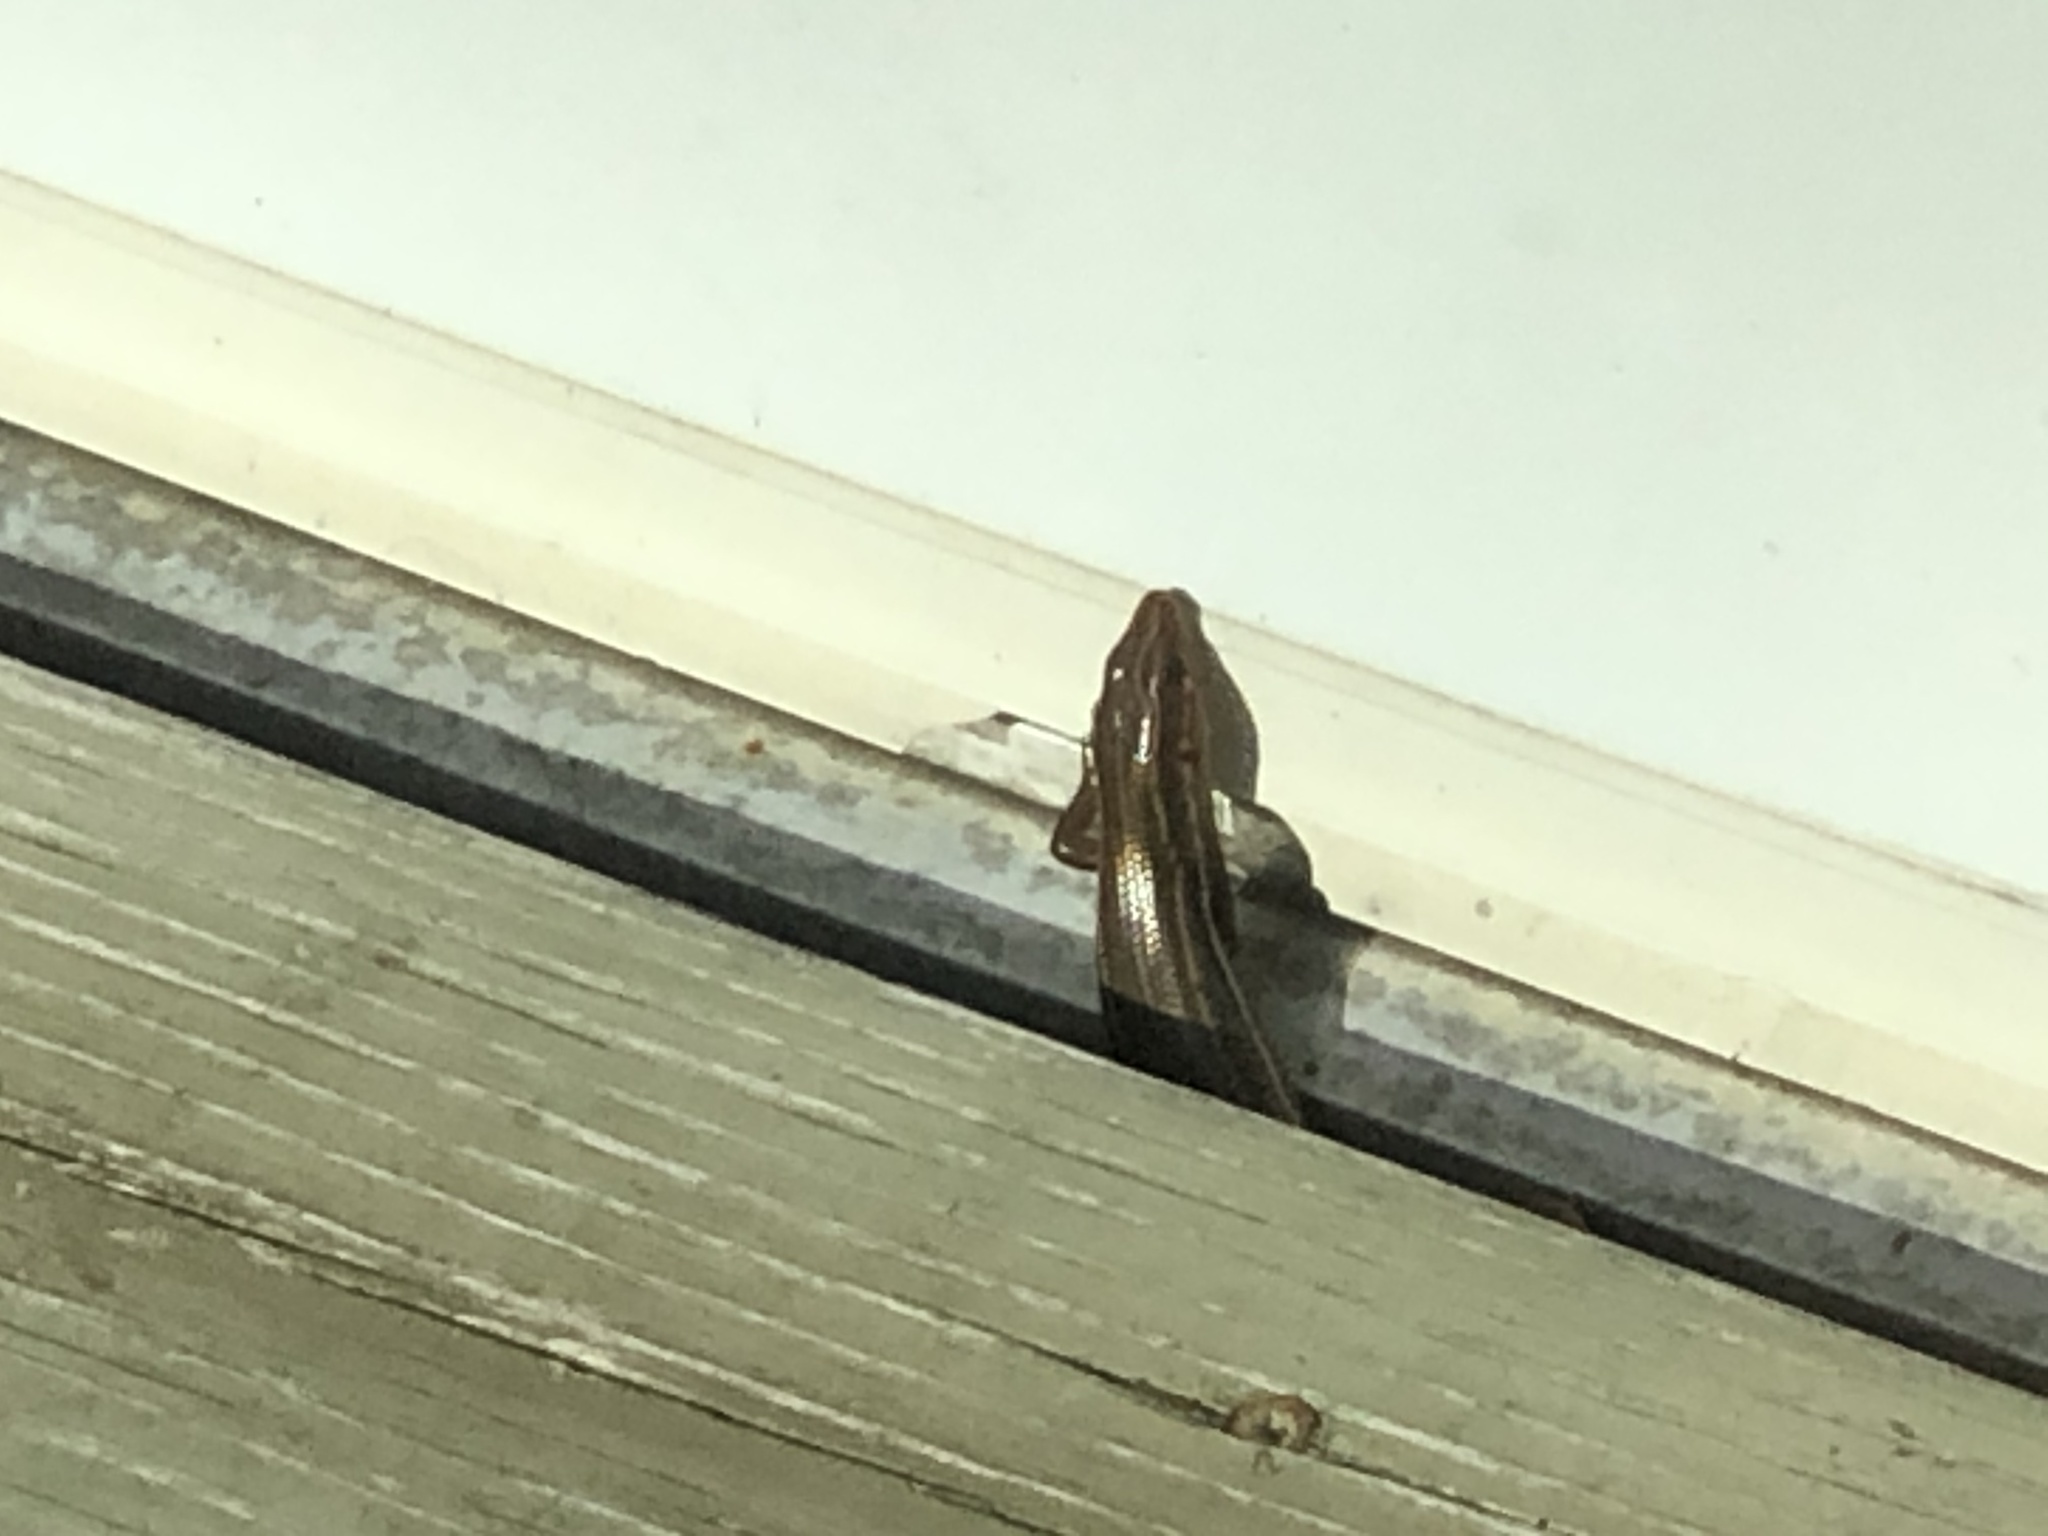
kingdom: Animalia
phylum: Chordata
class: Squamata
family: Scincidae
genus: Plestiodon
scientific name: Plestiodon inexpectatus
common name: Southeastern five-lined skink
